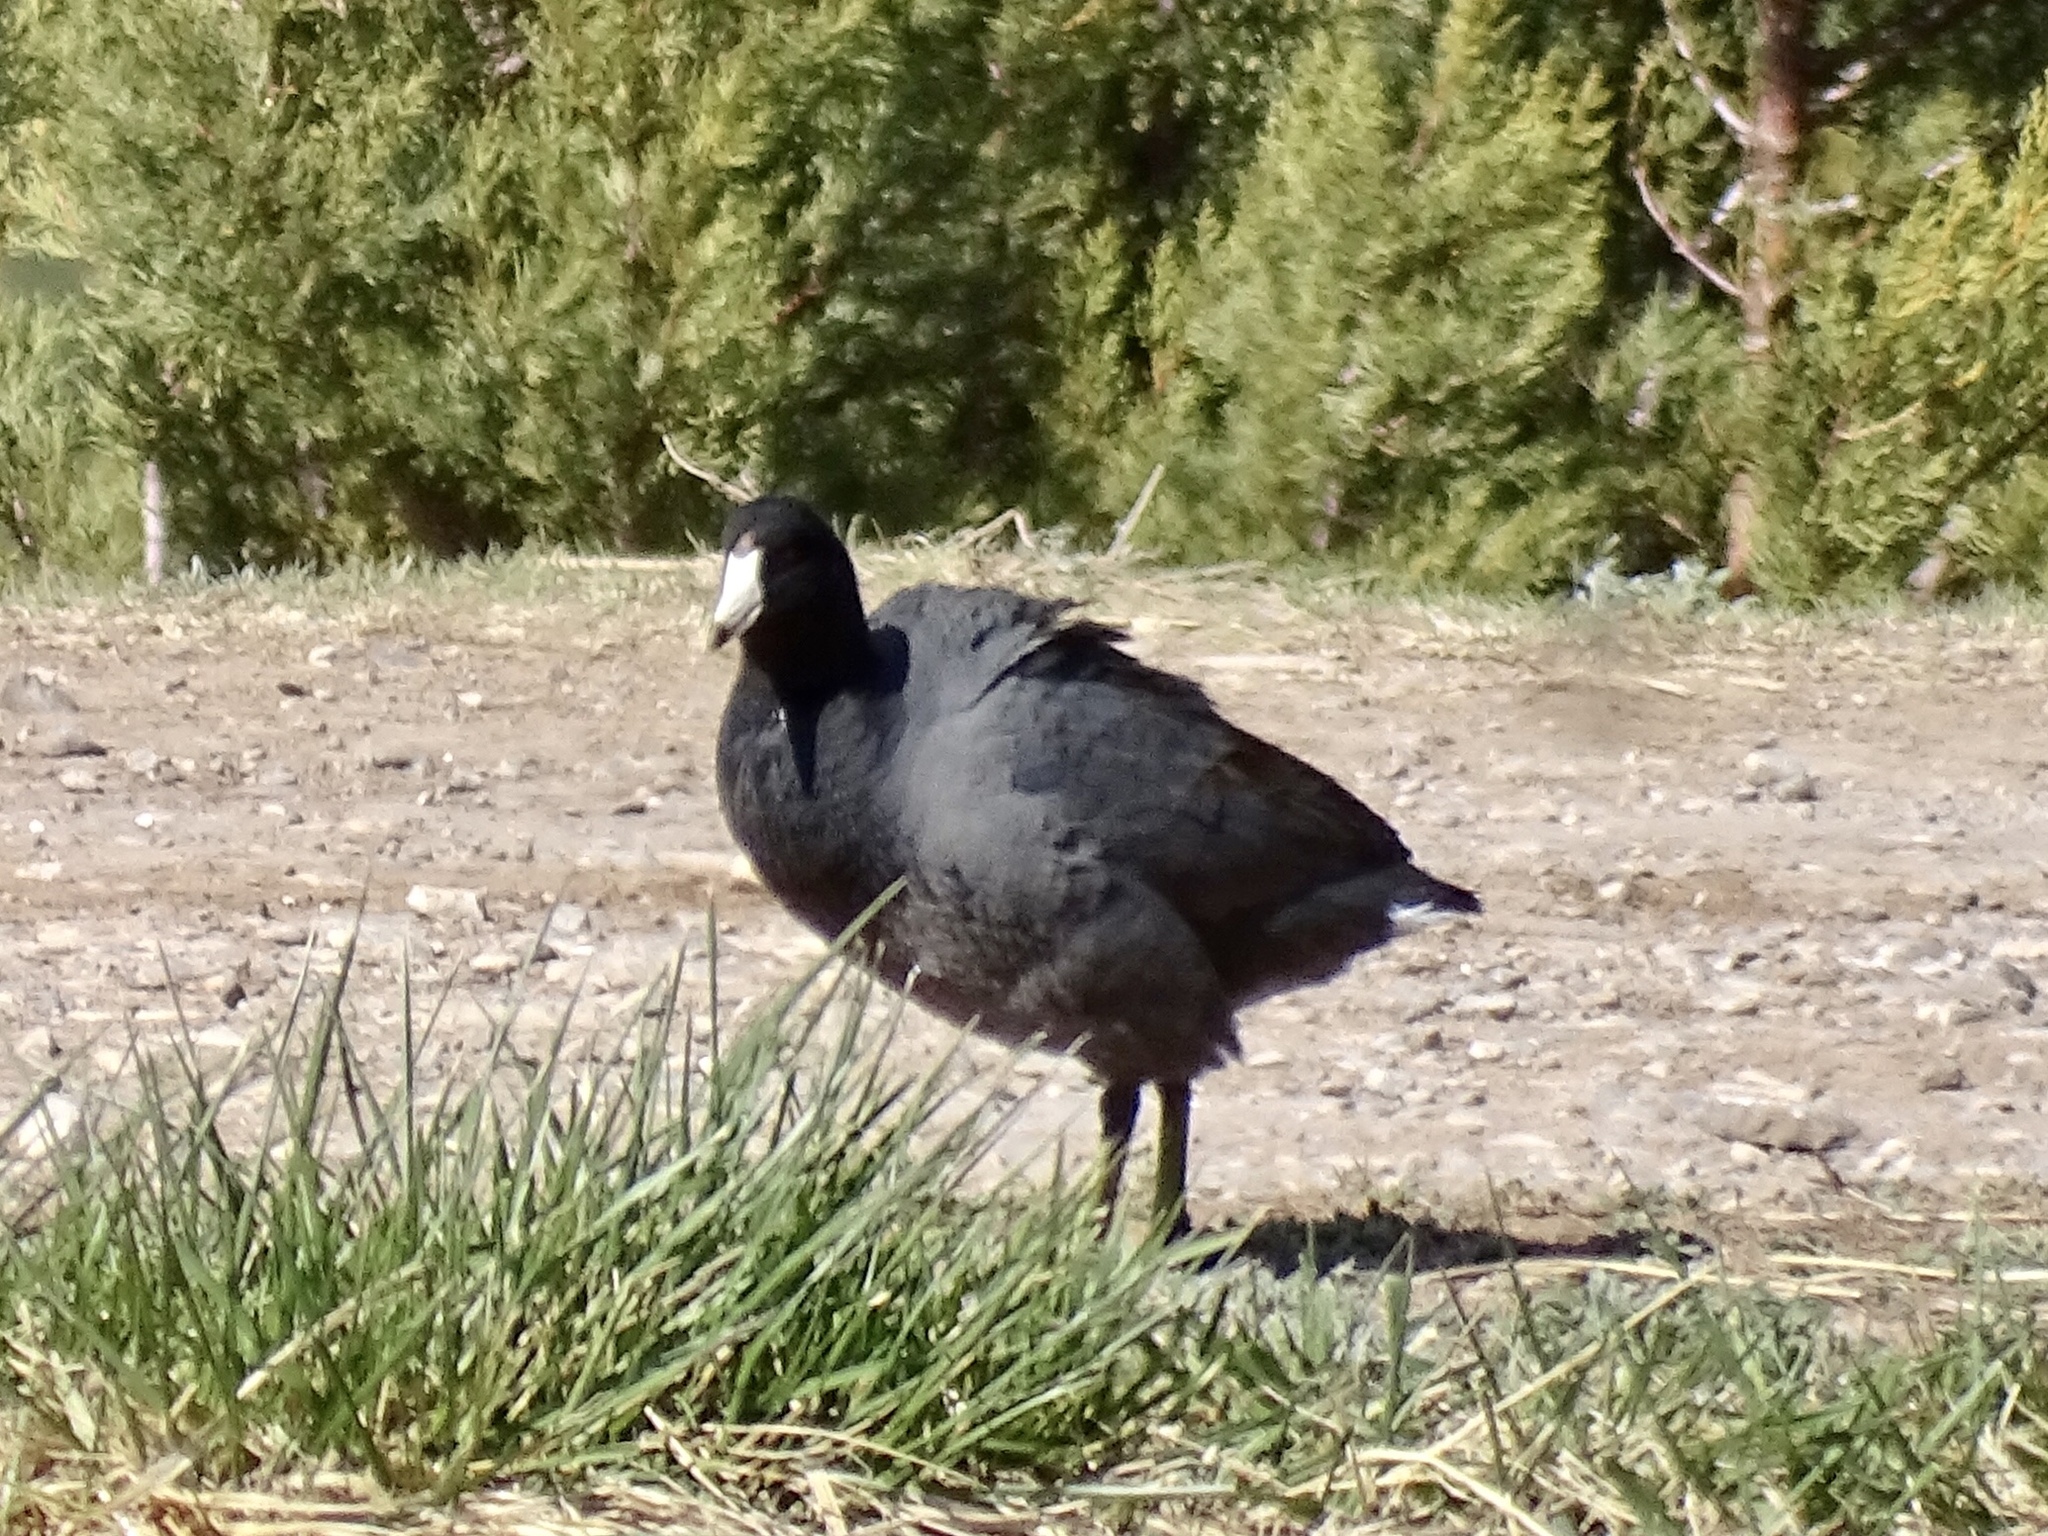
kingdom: Animalia
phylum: Chordata
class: Aves
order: Gruiformes
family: Rallidae
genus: Fulica
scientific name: Fulica americana
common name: American coot
